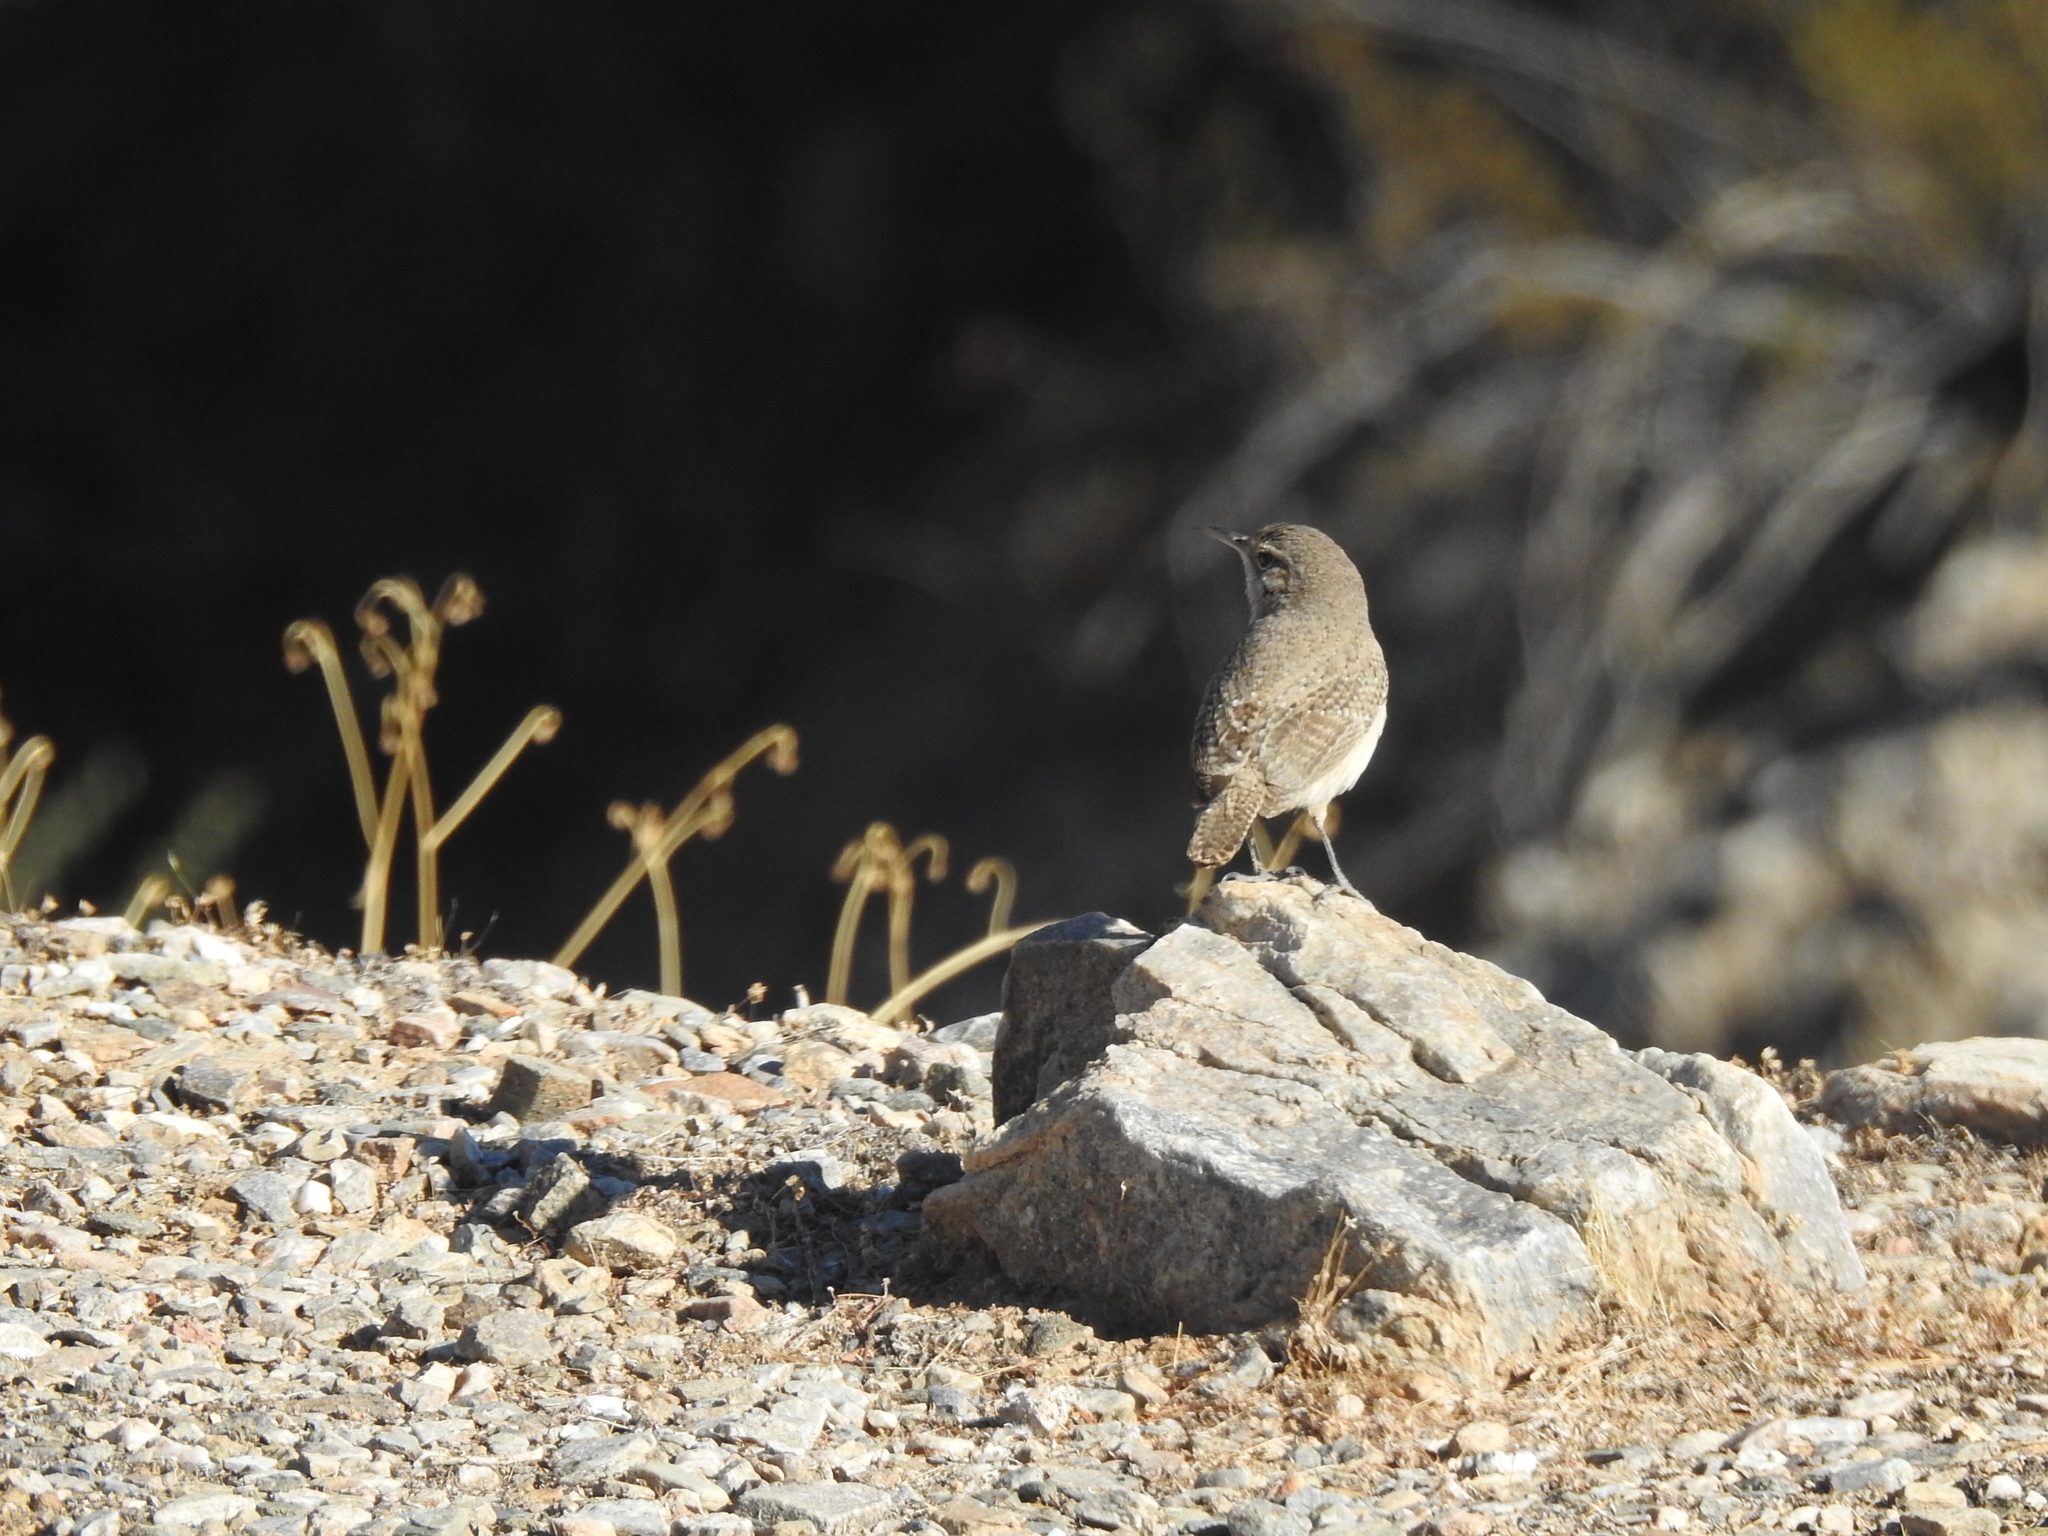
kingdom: Animalia
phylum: Chordata
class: Aves
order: Passeriformes
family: Troglodytidae
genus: Salpinctes
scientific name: Salpinctes obsoletus
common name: Rock wren
